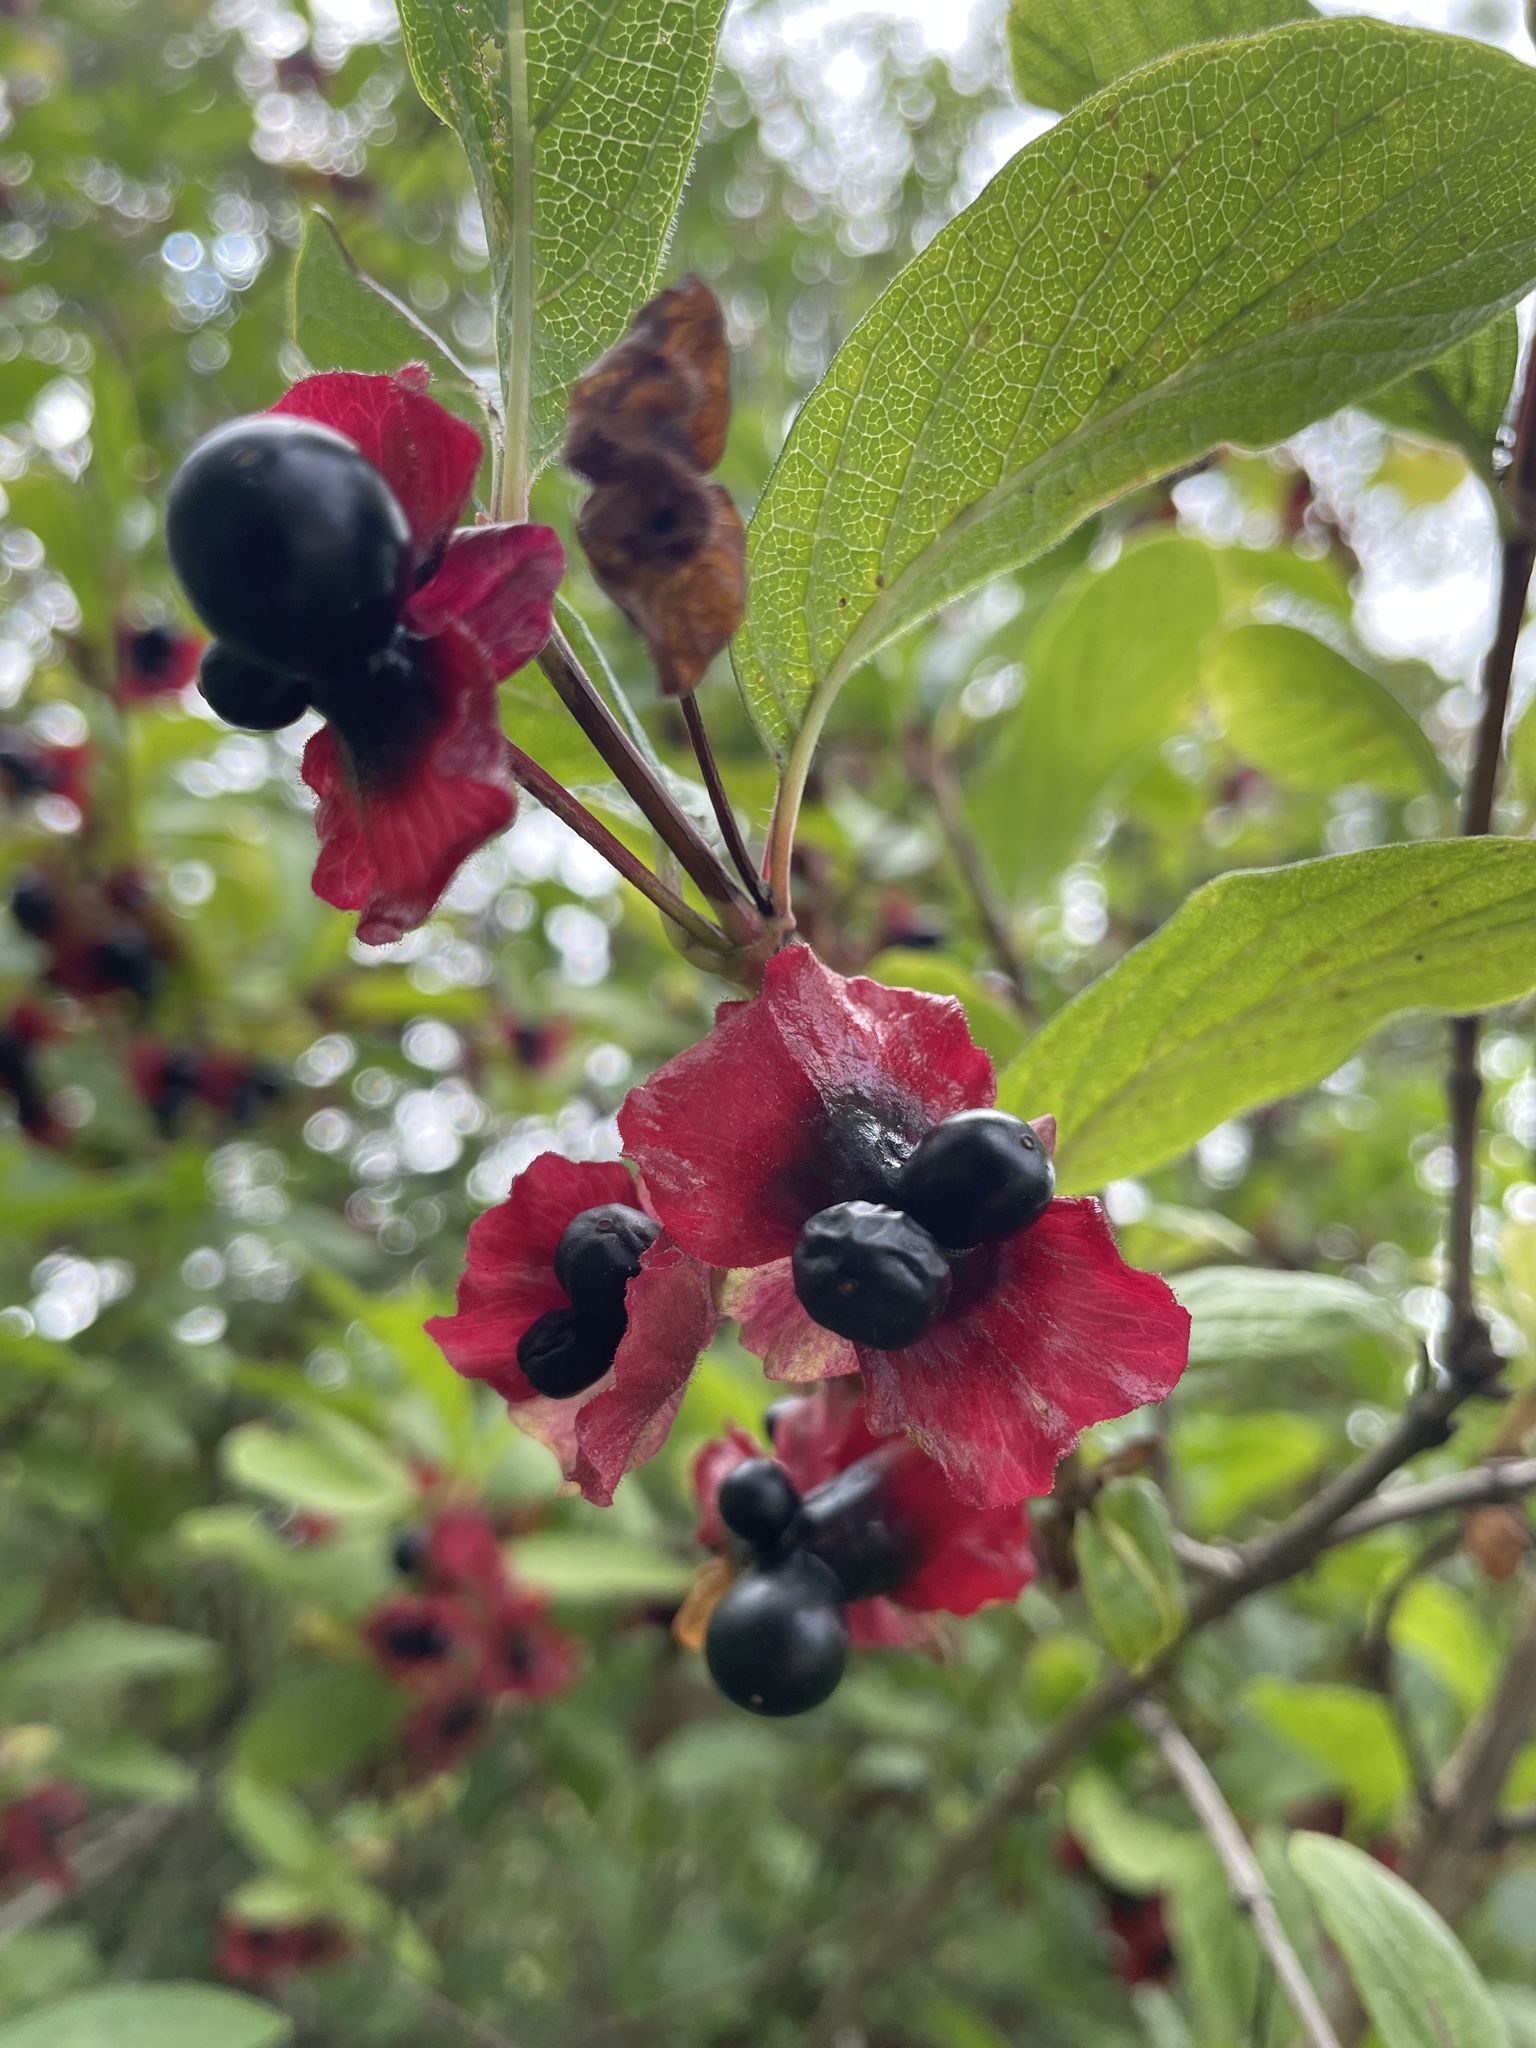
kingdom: Plantae
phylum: Tracheophyta
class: Magnoliopsida
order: Dipsacales
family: Caprifoliaceae
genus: Lonicera
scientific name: Lonicera involucrata
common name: Californian honeysuckle
